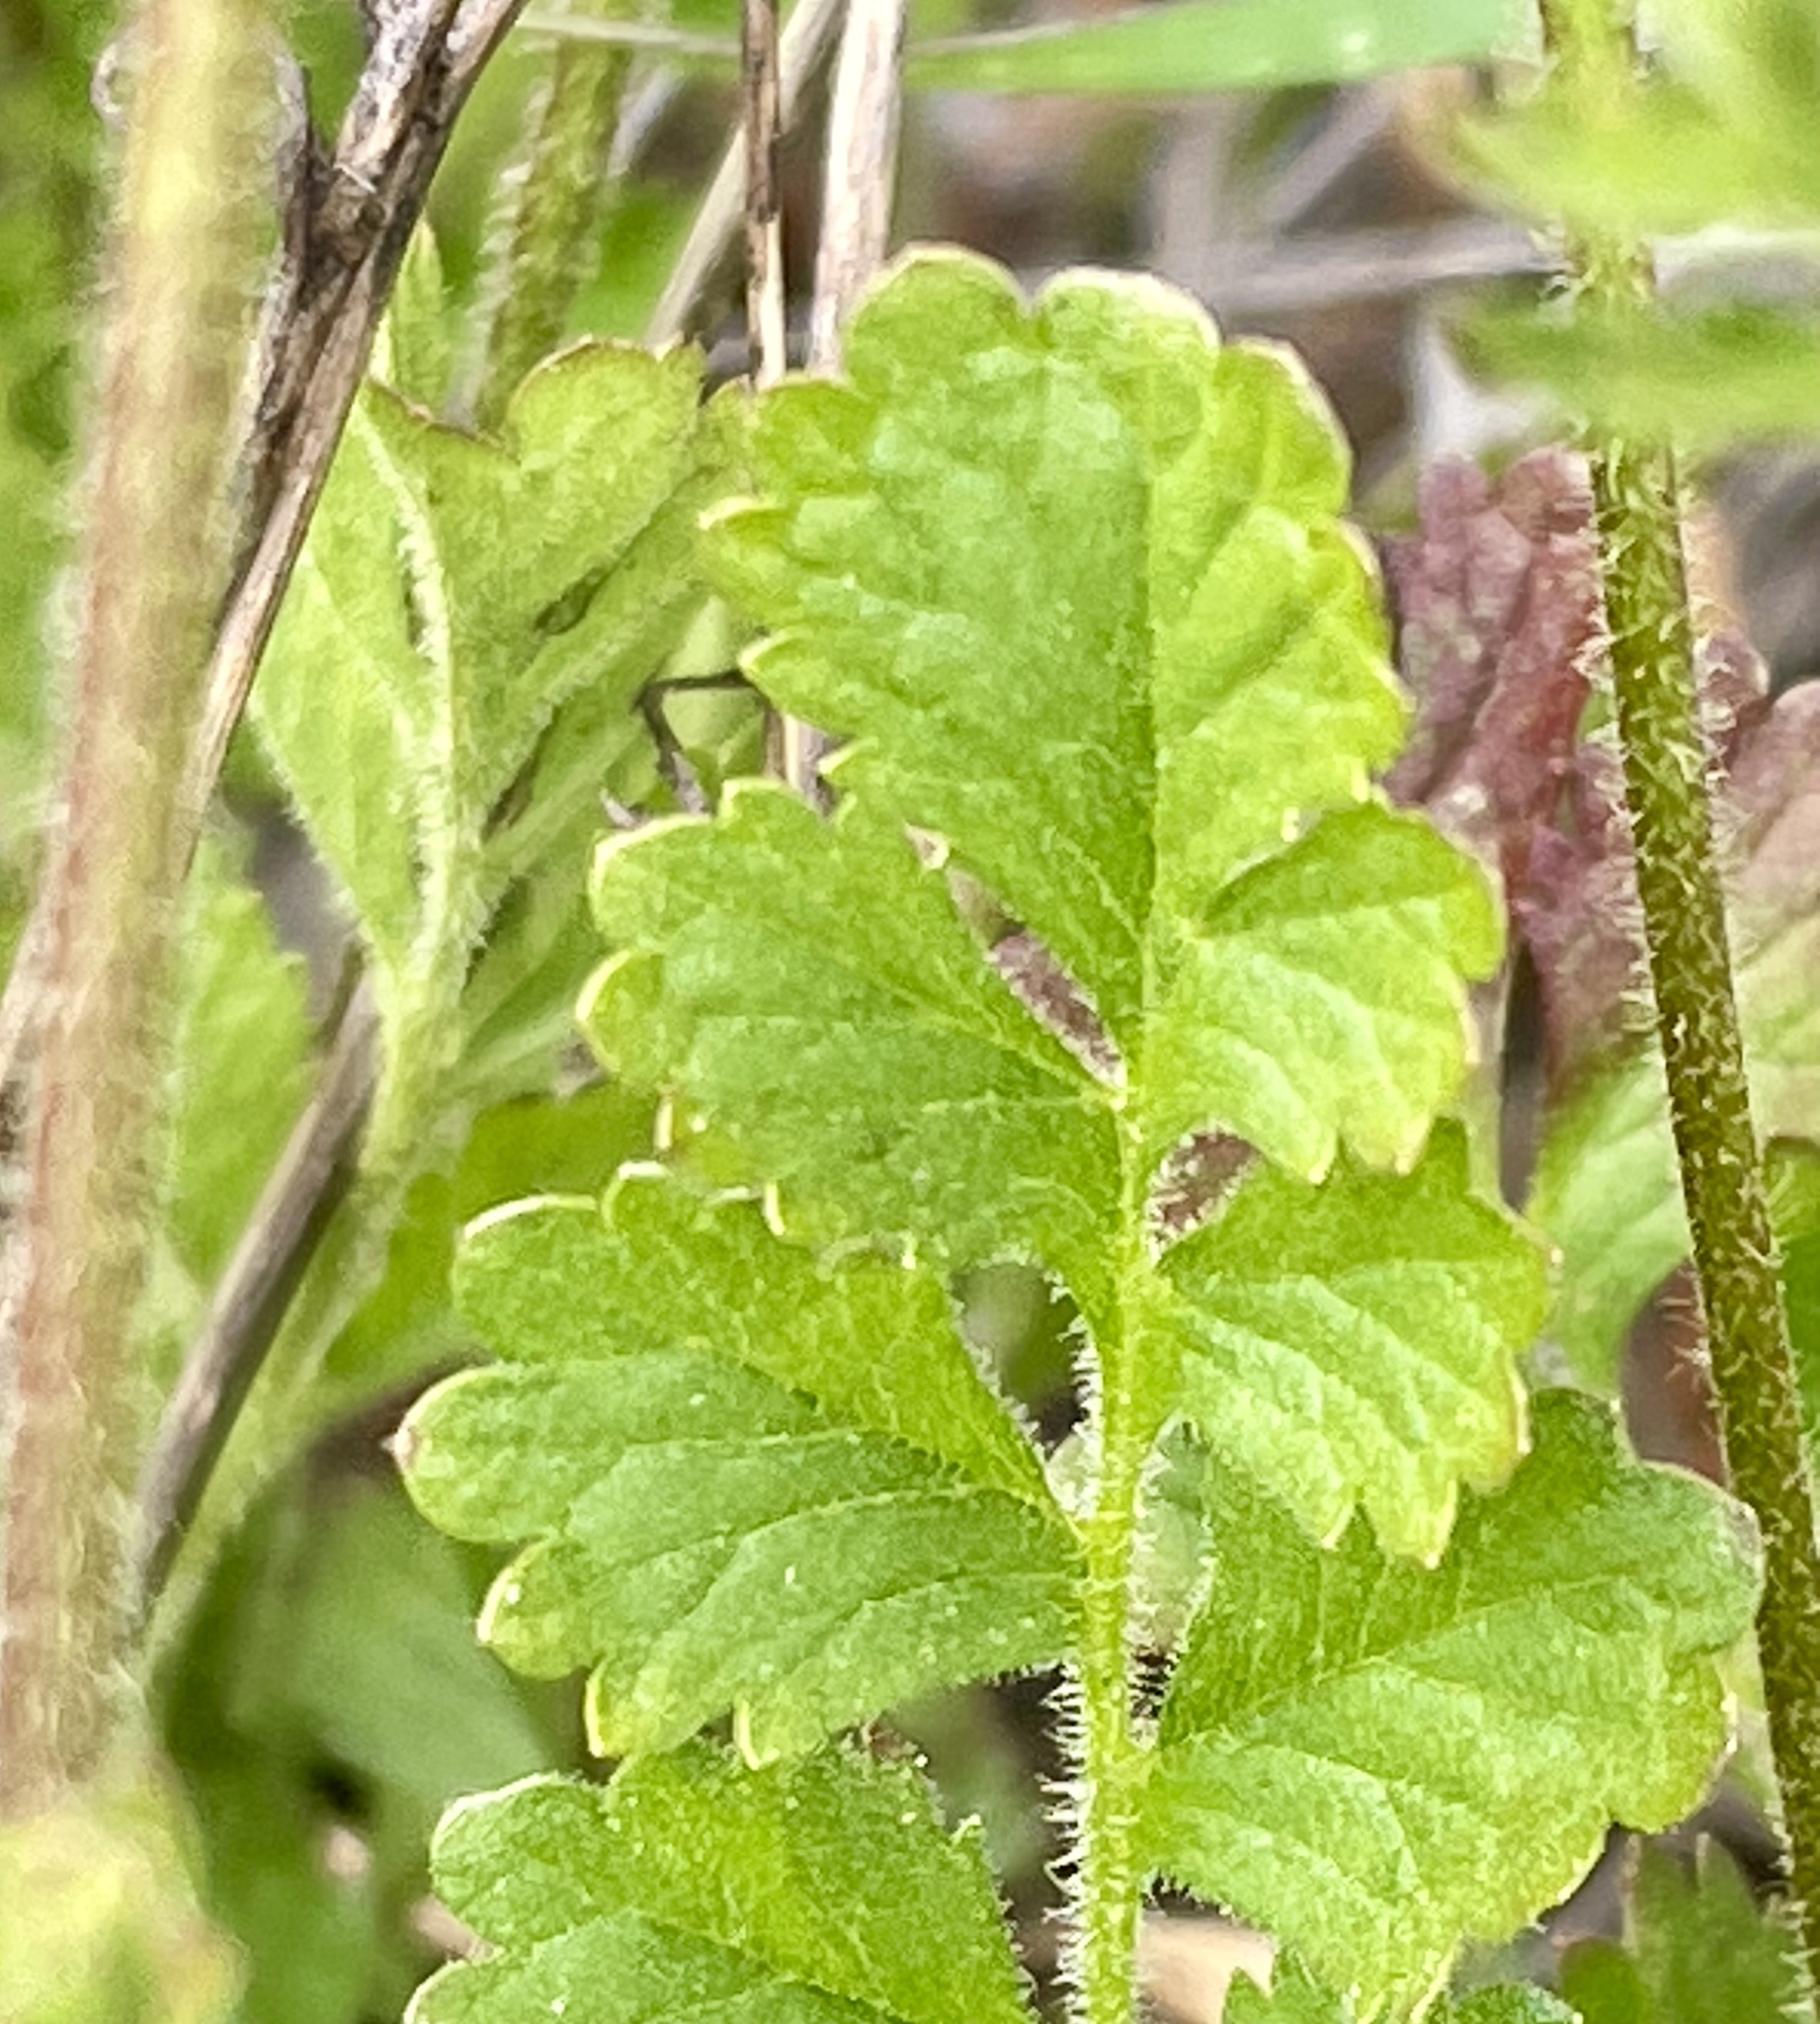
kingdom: Plantae
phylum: Tracheophyta
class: Magnoliopsida
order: Rosales
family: Rosaceae
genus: Potentilla
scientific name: Potentilla
